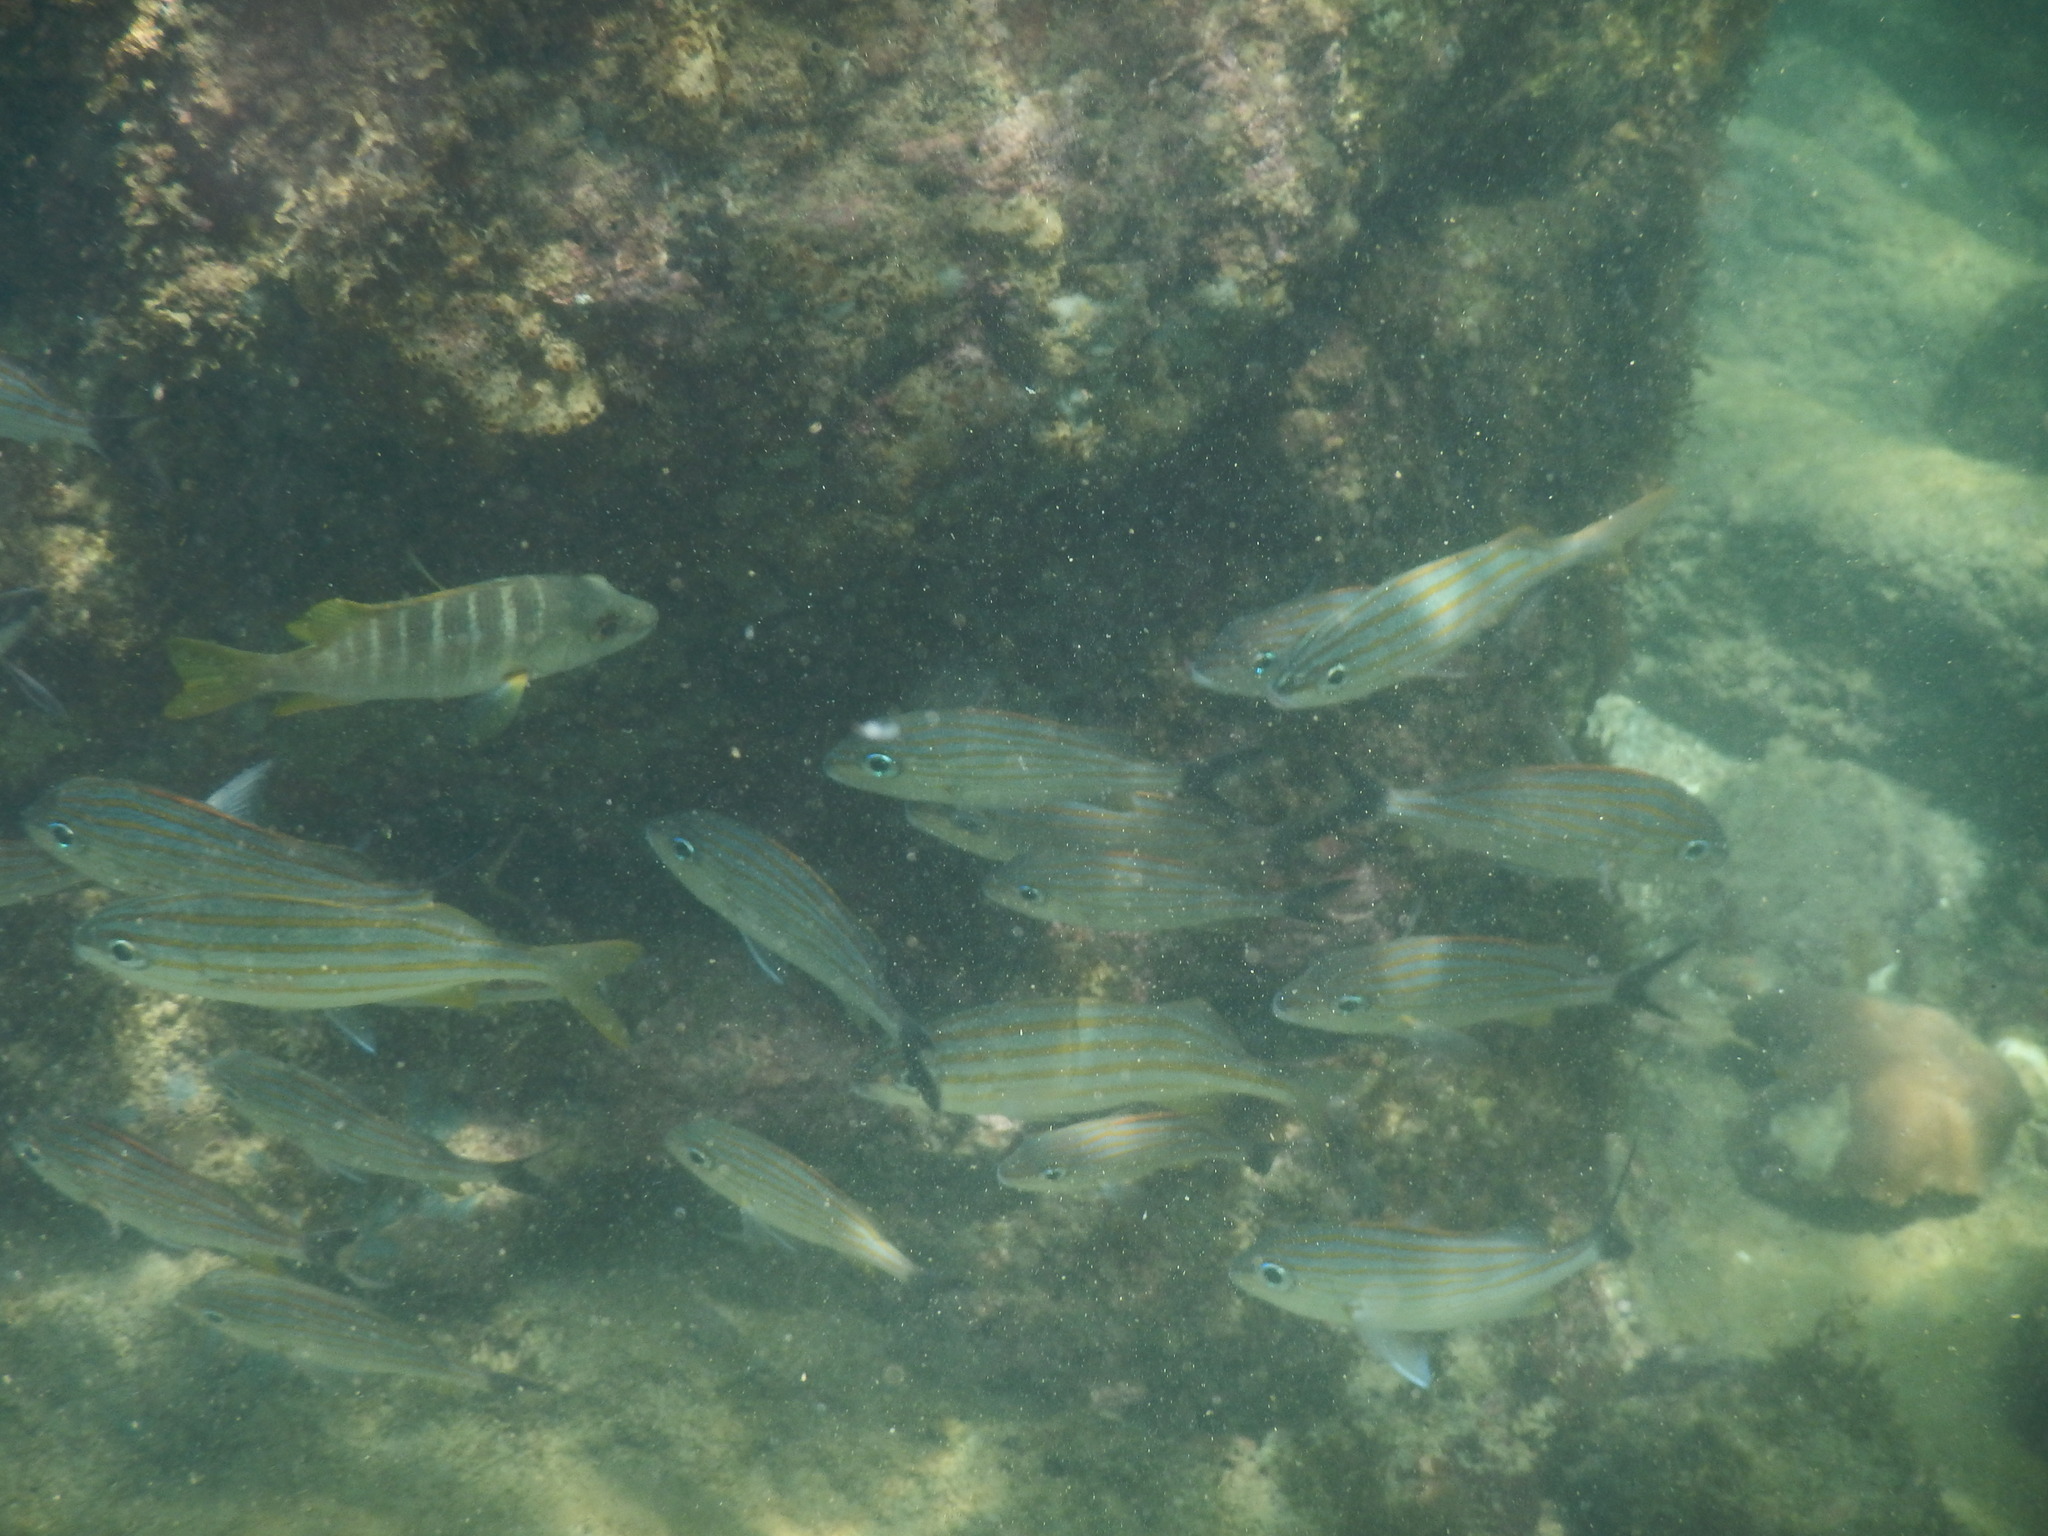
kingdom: Animalia
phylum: Chordata
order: Perciformes
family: Haemulidae
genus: Haemulon
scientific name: Haemulon carbonarium
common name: Caesar grunt
